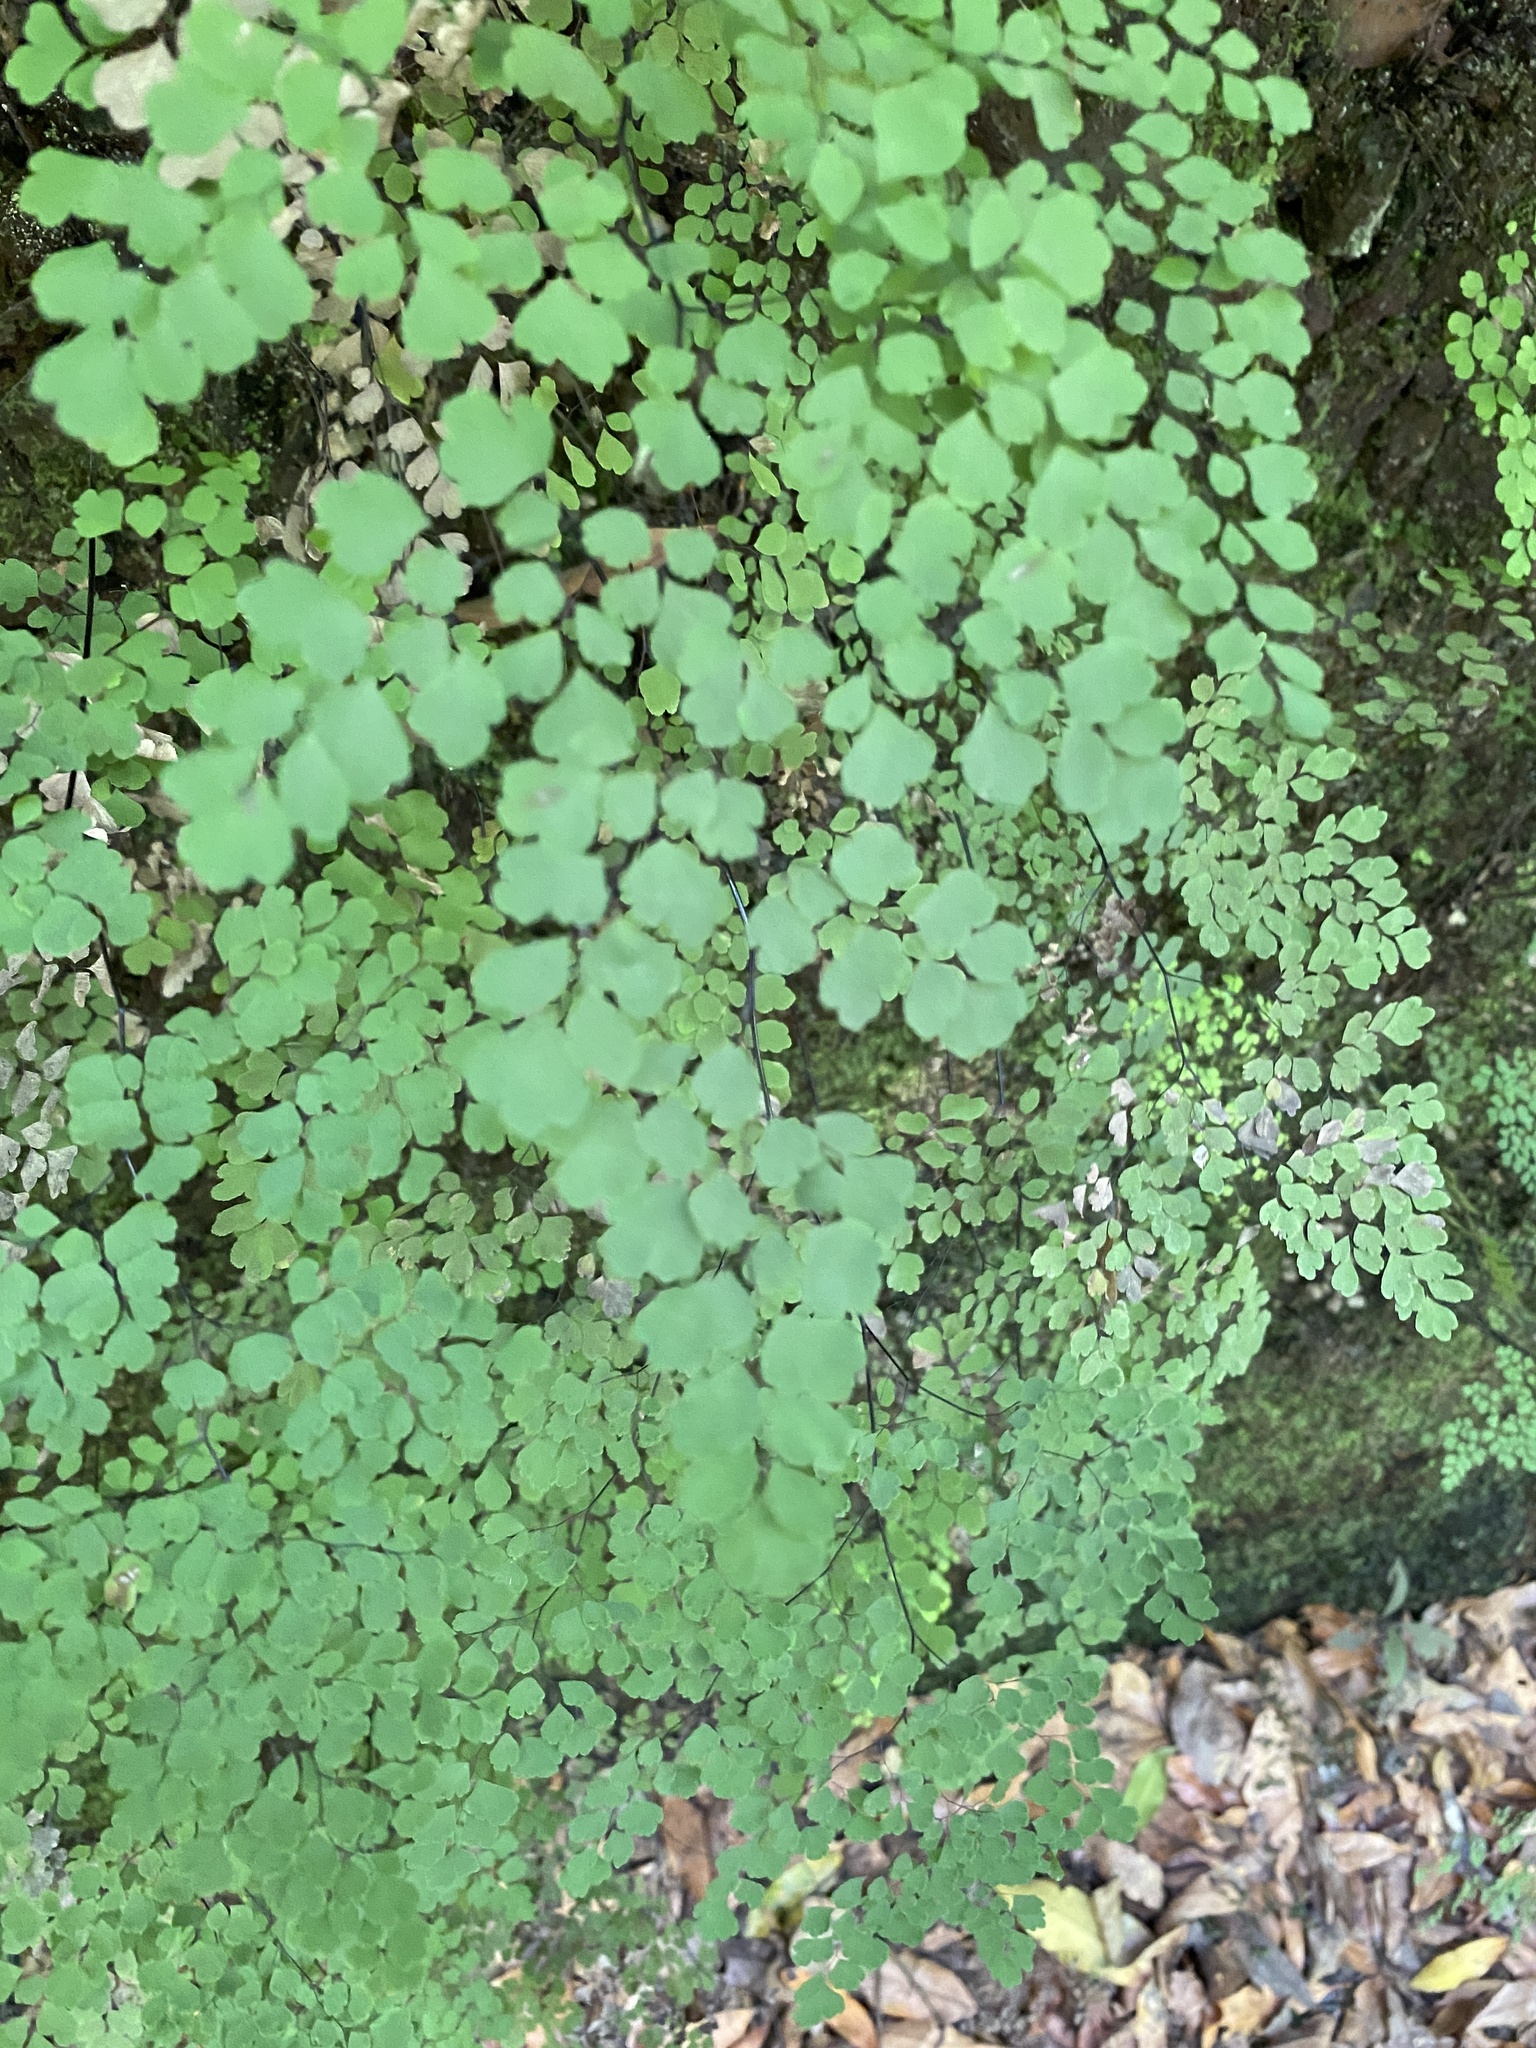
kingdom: Plantae
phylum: Tracheophyta
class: Polypodiopsida
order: Polypodiales
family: Pteridaceae
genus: Adiantum
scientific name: Adiantum raddianum
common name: Delta maidenhair fern
